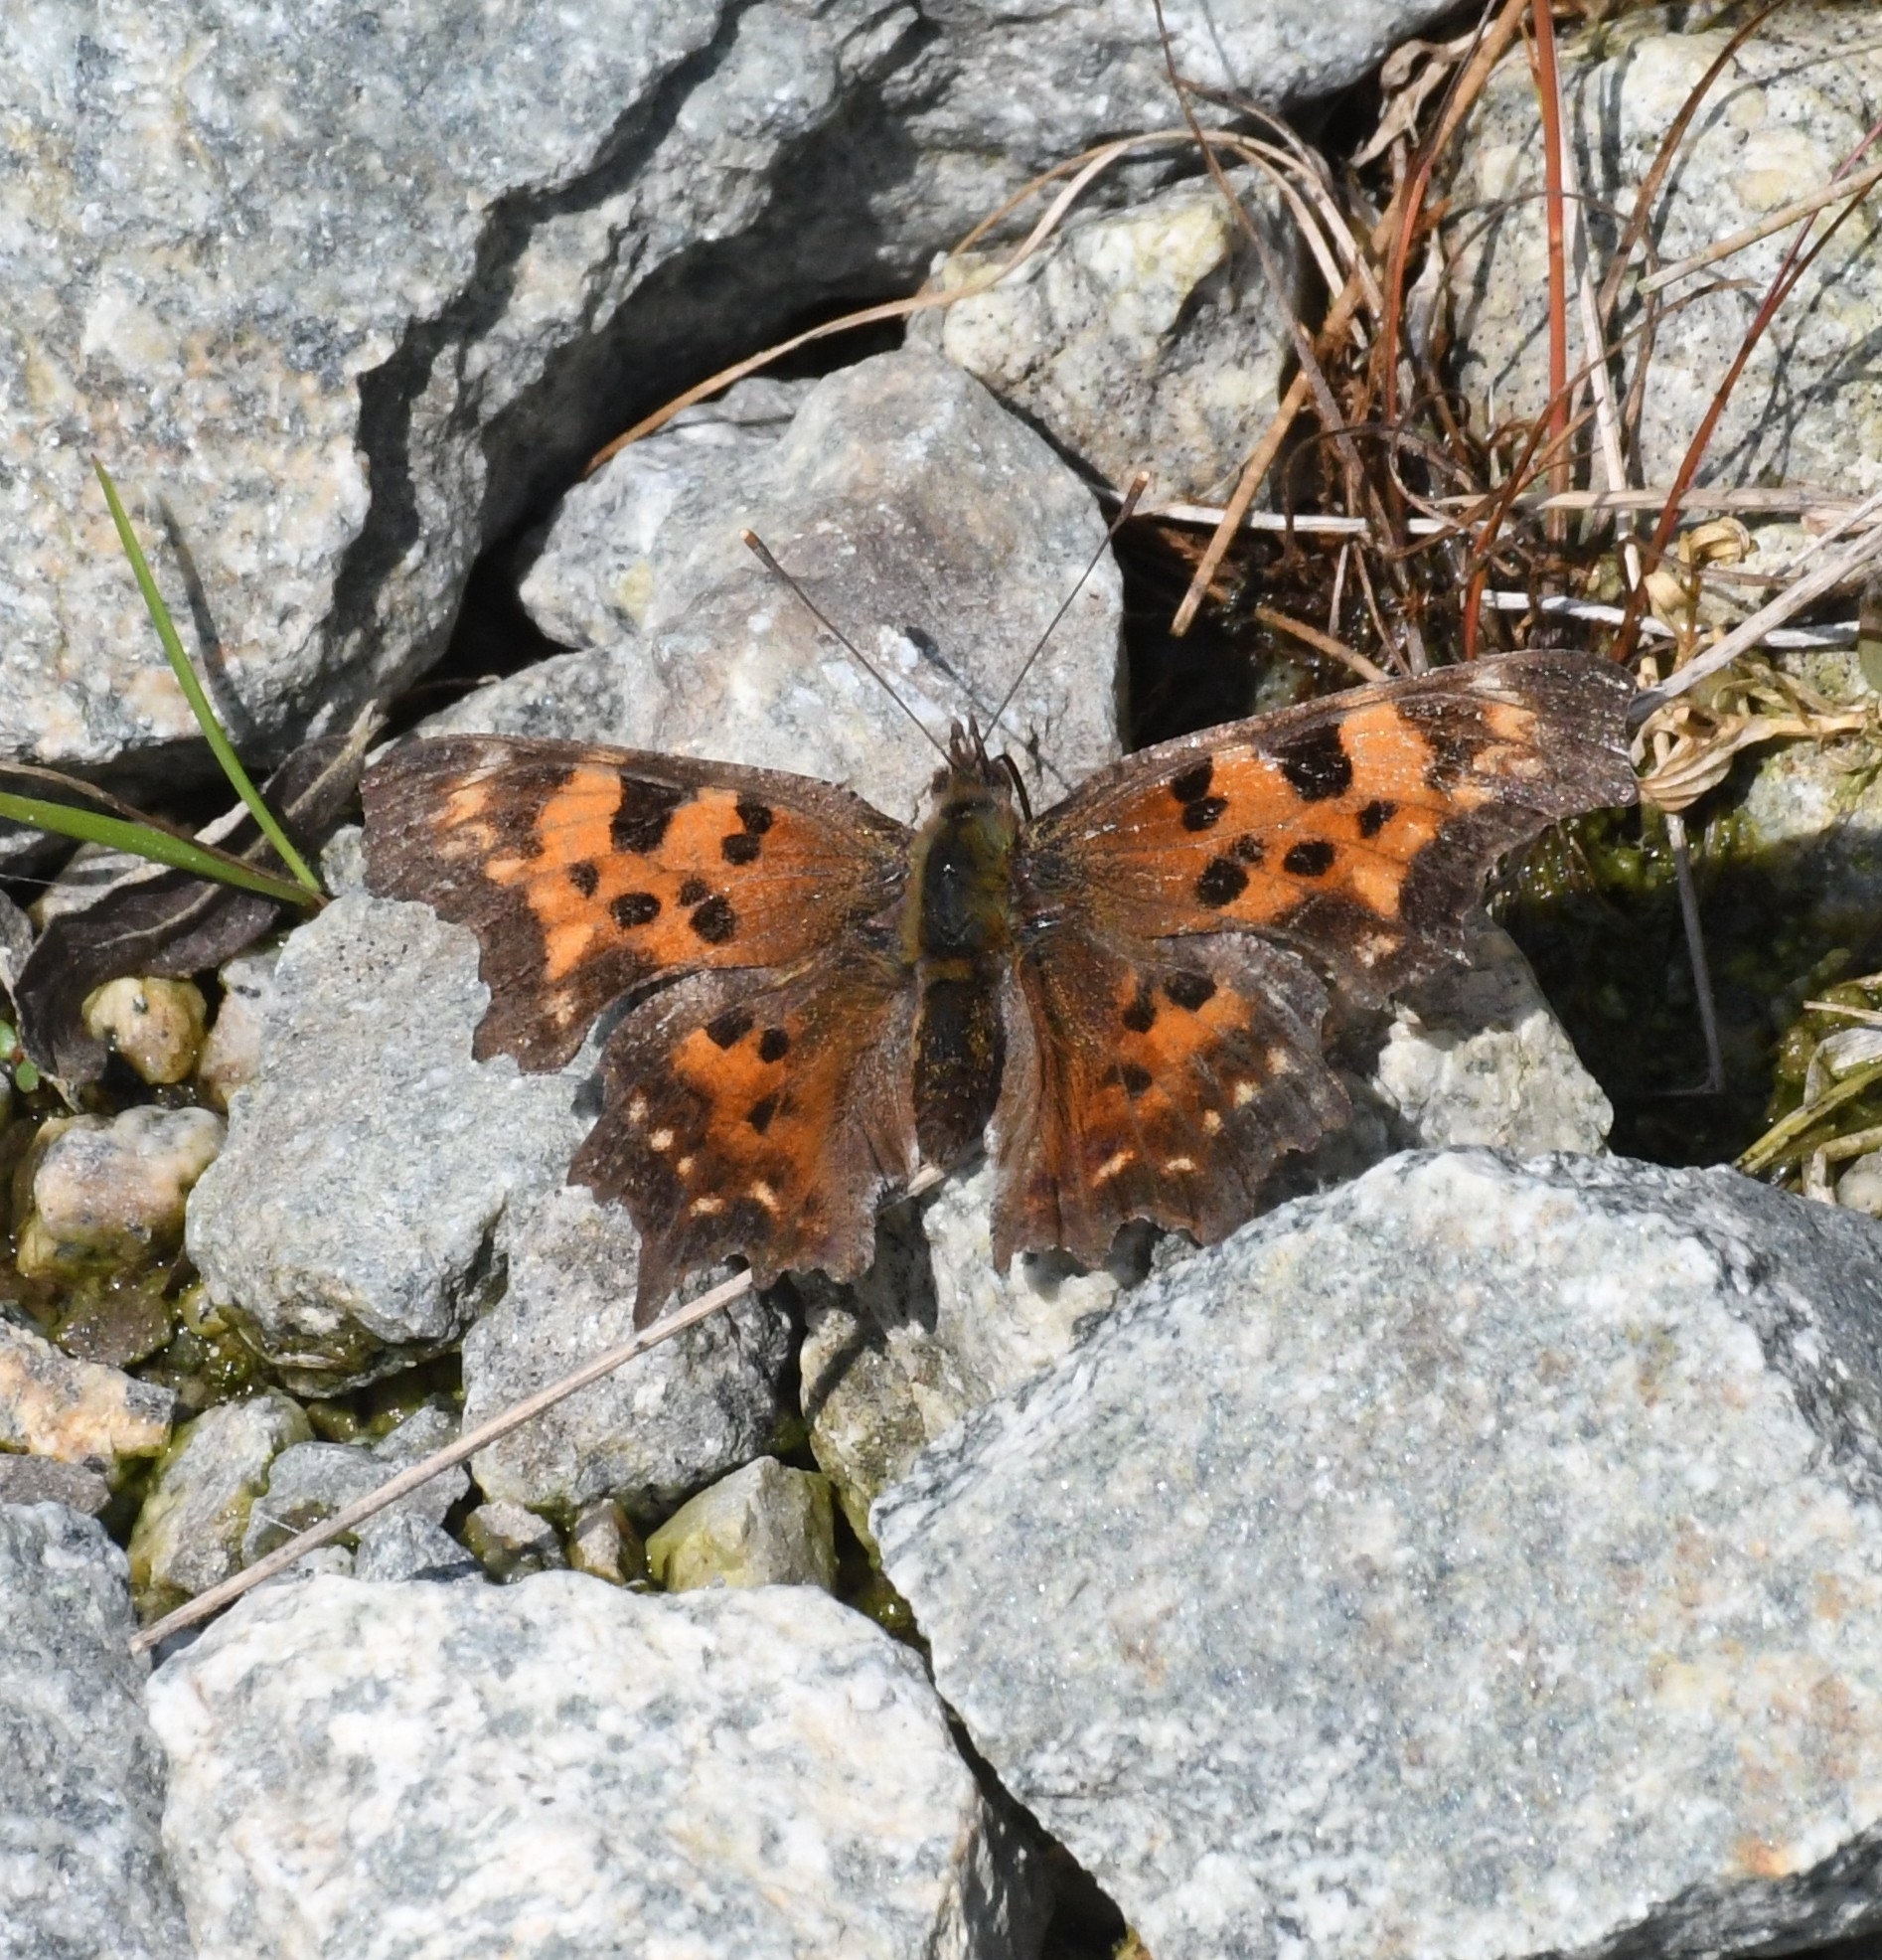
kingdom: Animalia
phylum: Arthropoda
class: Insecta
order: Lepidoptera
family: Nymphalidae
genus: Polygonia
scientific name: Polygonia faunus
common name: Green comma
